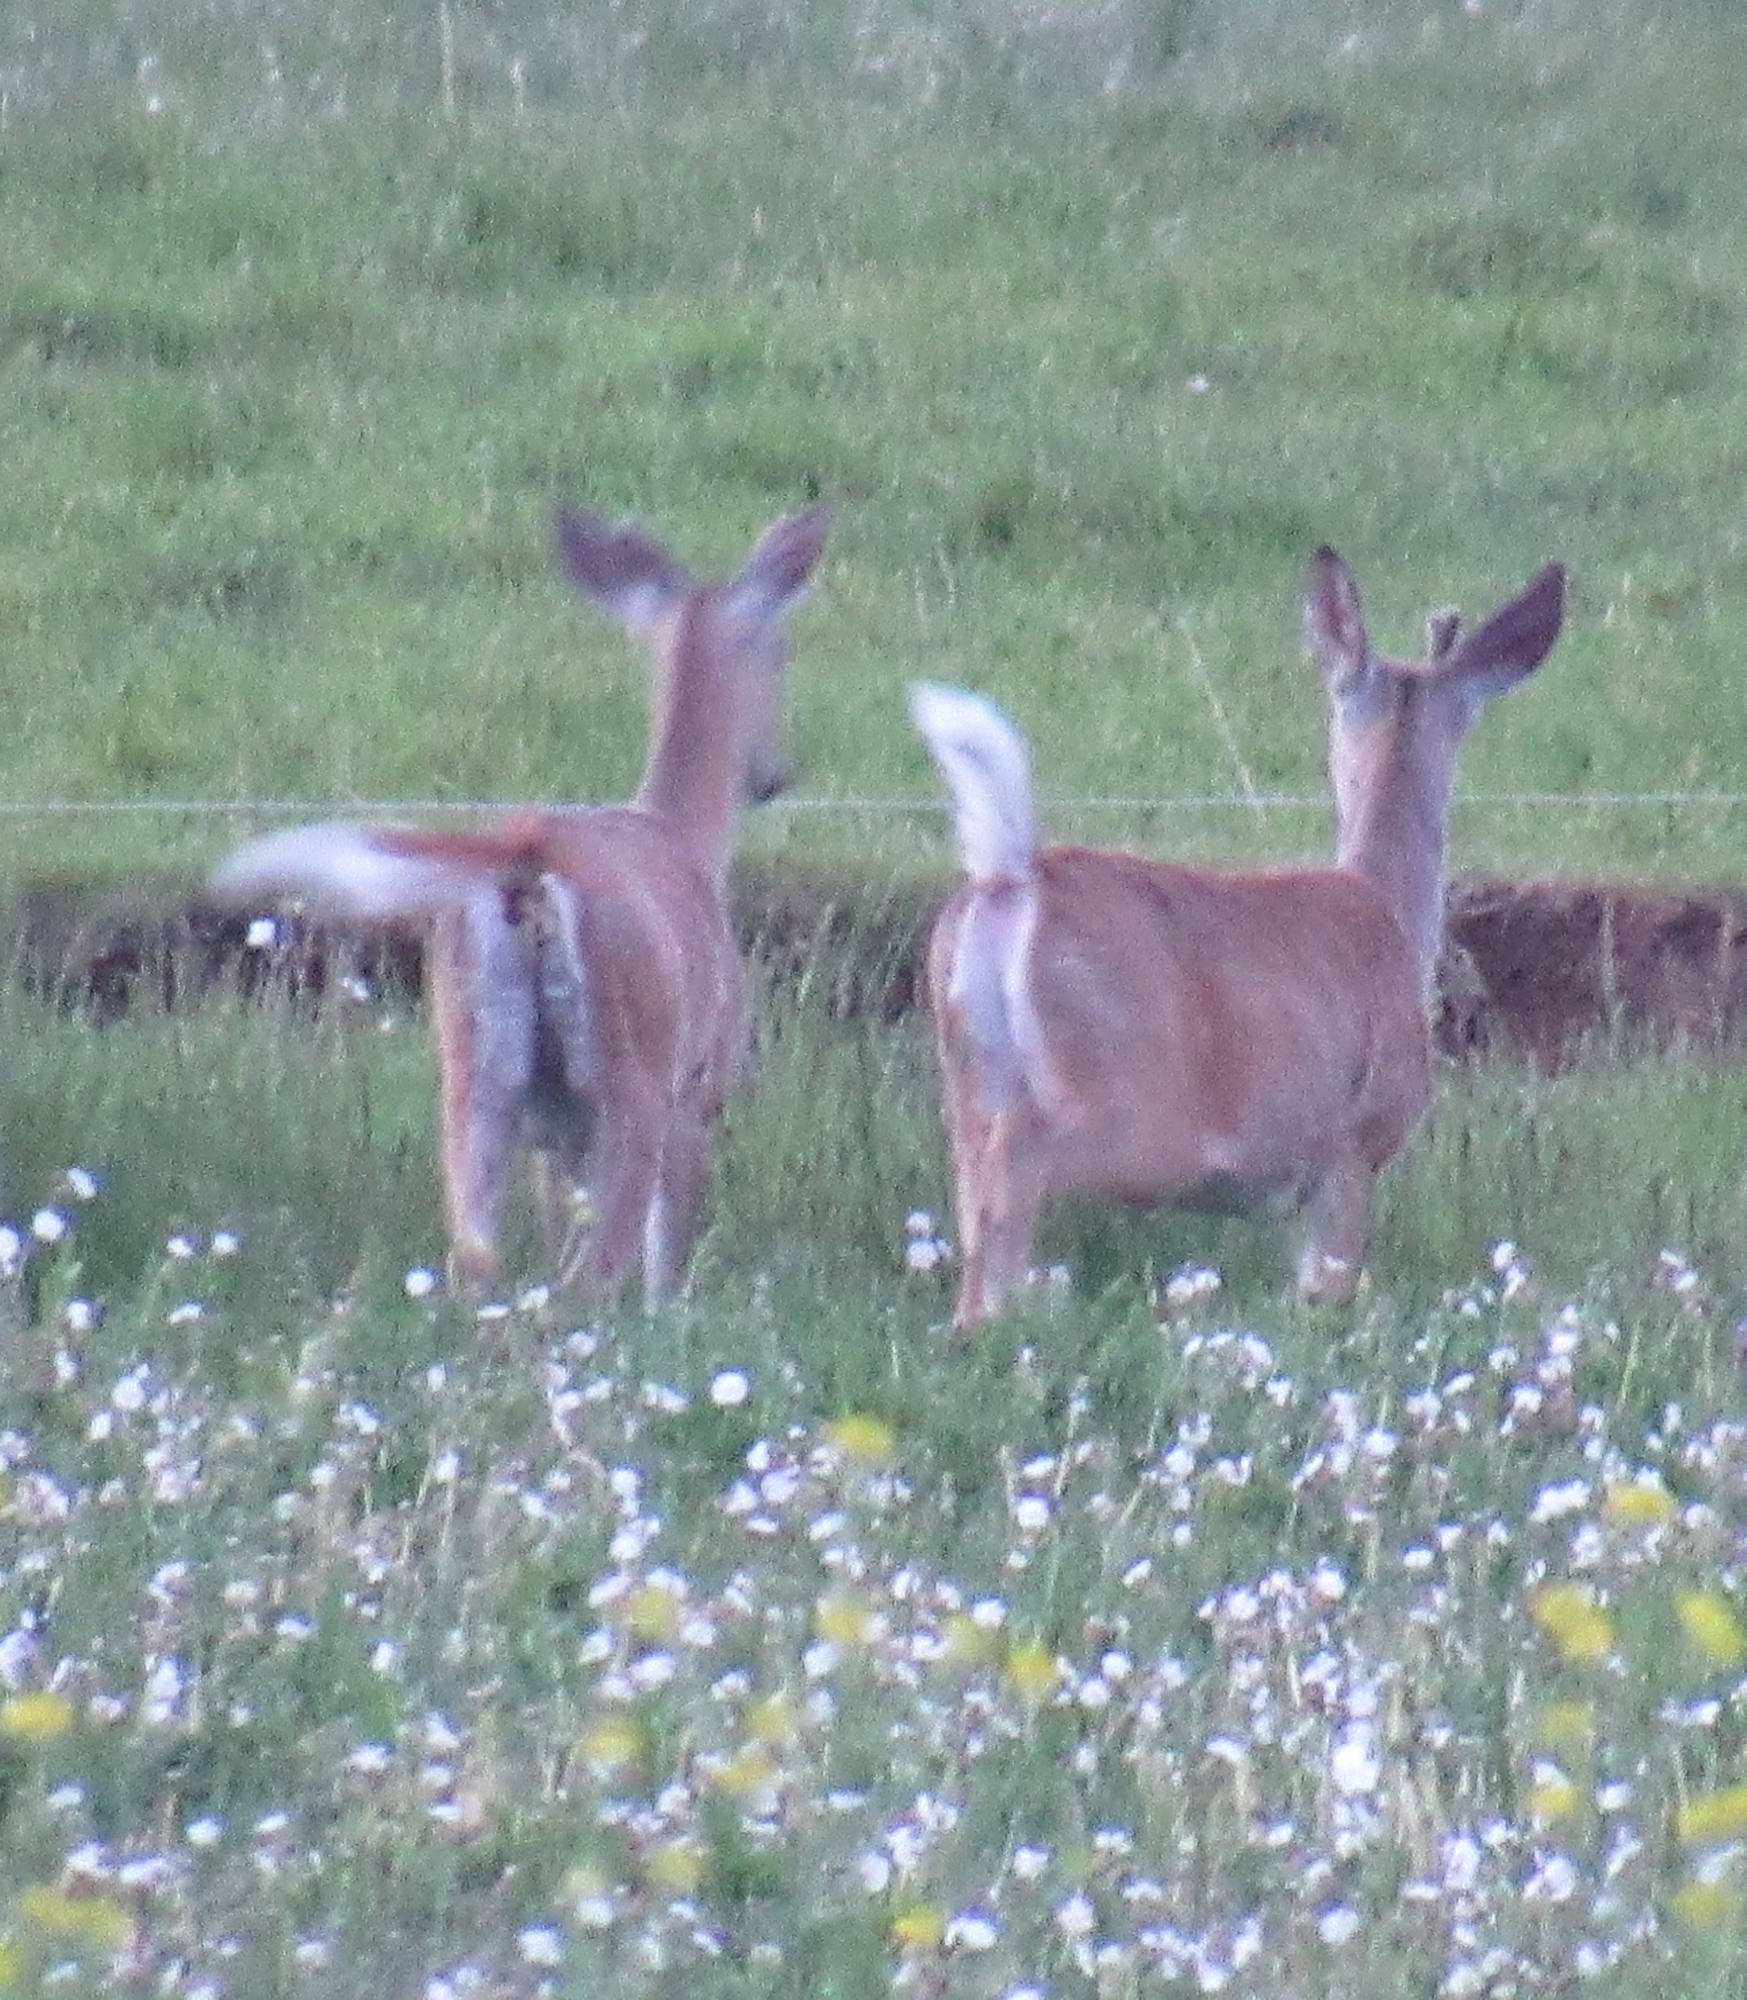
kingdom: Animalia
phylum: Chordata
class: Mammalia
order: Artiodactyla
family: Cervidae
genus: Odocoileus
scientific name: Odocoileus virginianus
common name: White-tailed deer
